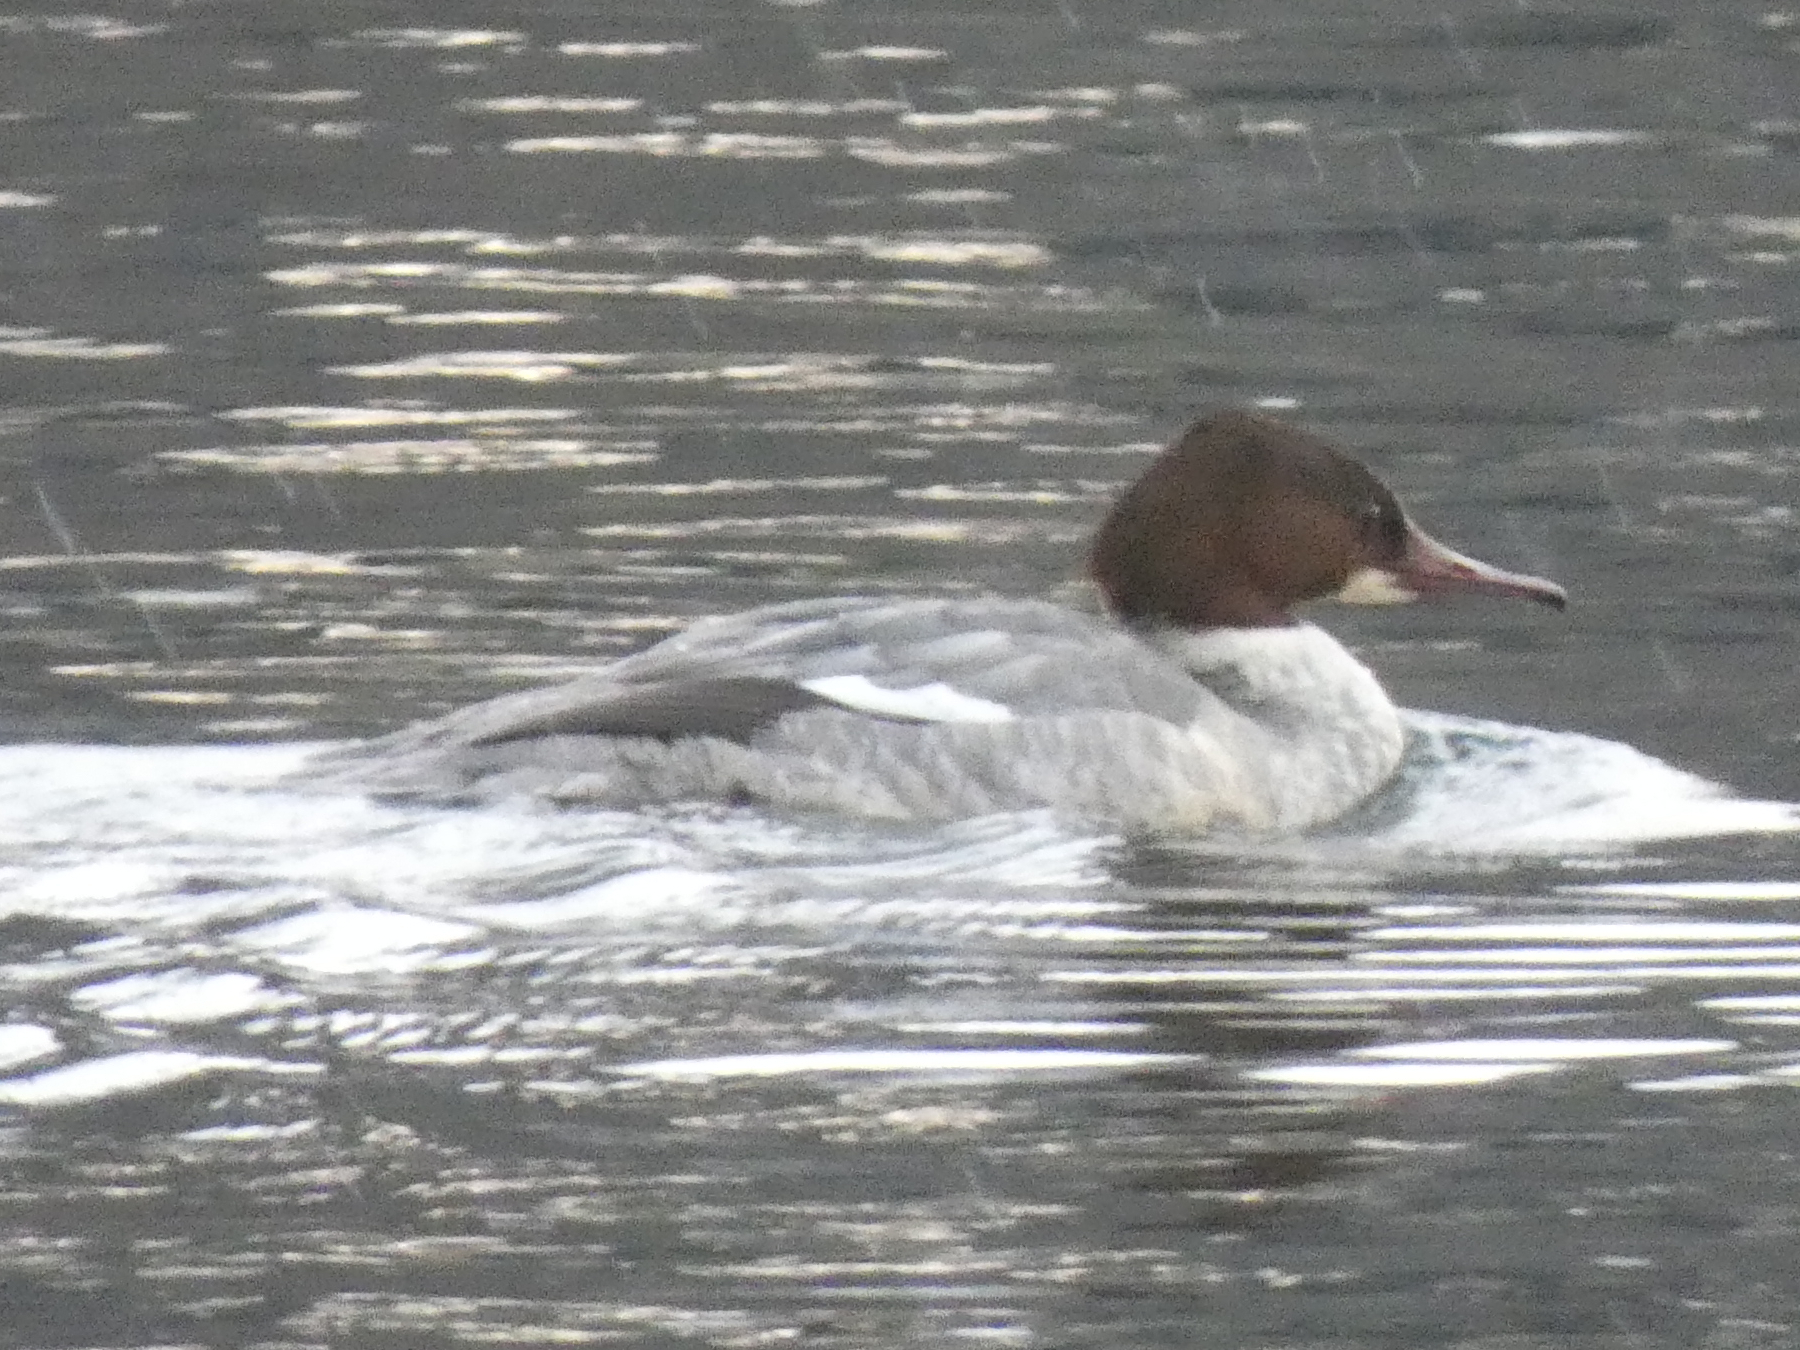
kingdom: Animalia
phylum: Chordata
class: Aves
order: Anseriformes
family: Anatidae
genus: Mergus
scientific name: Mergus merganser
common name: Common merganser
